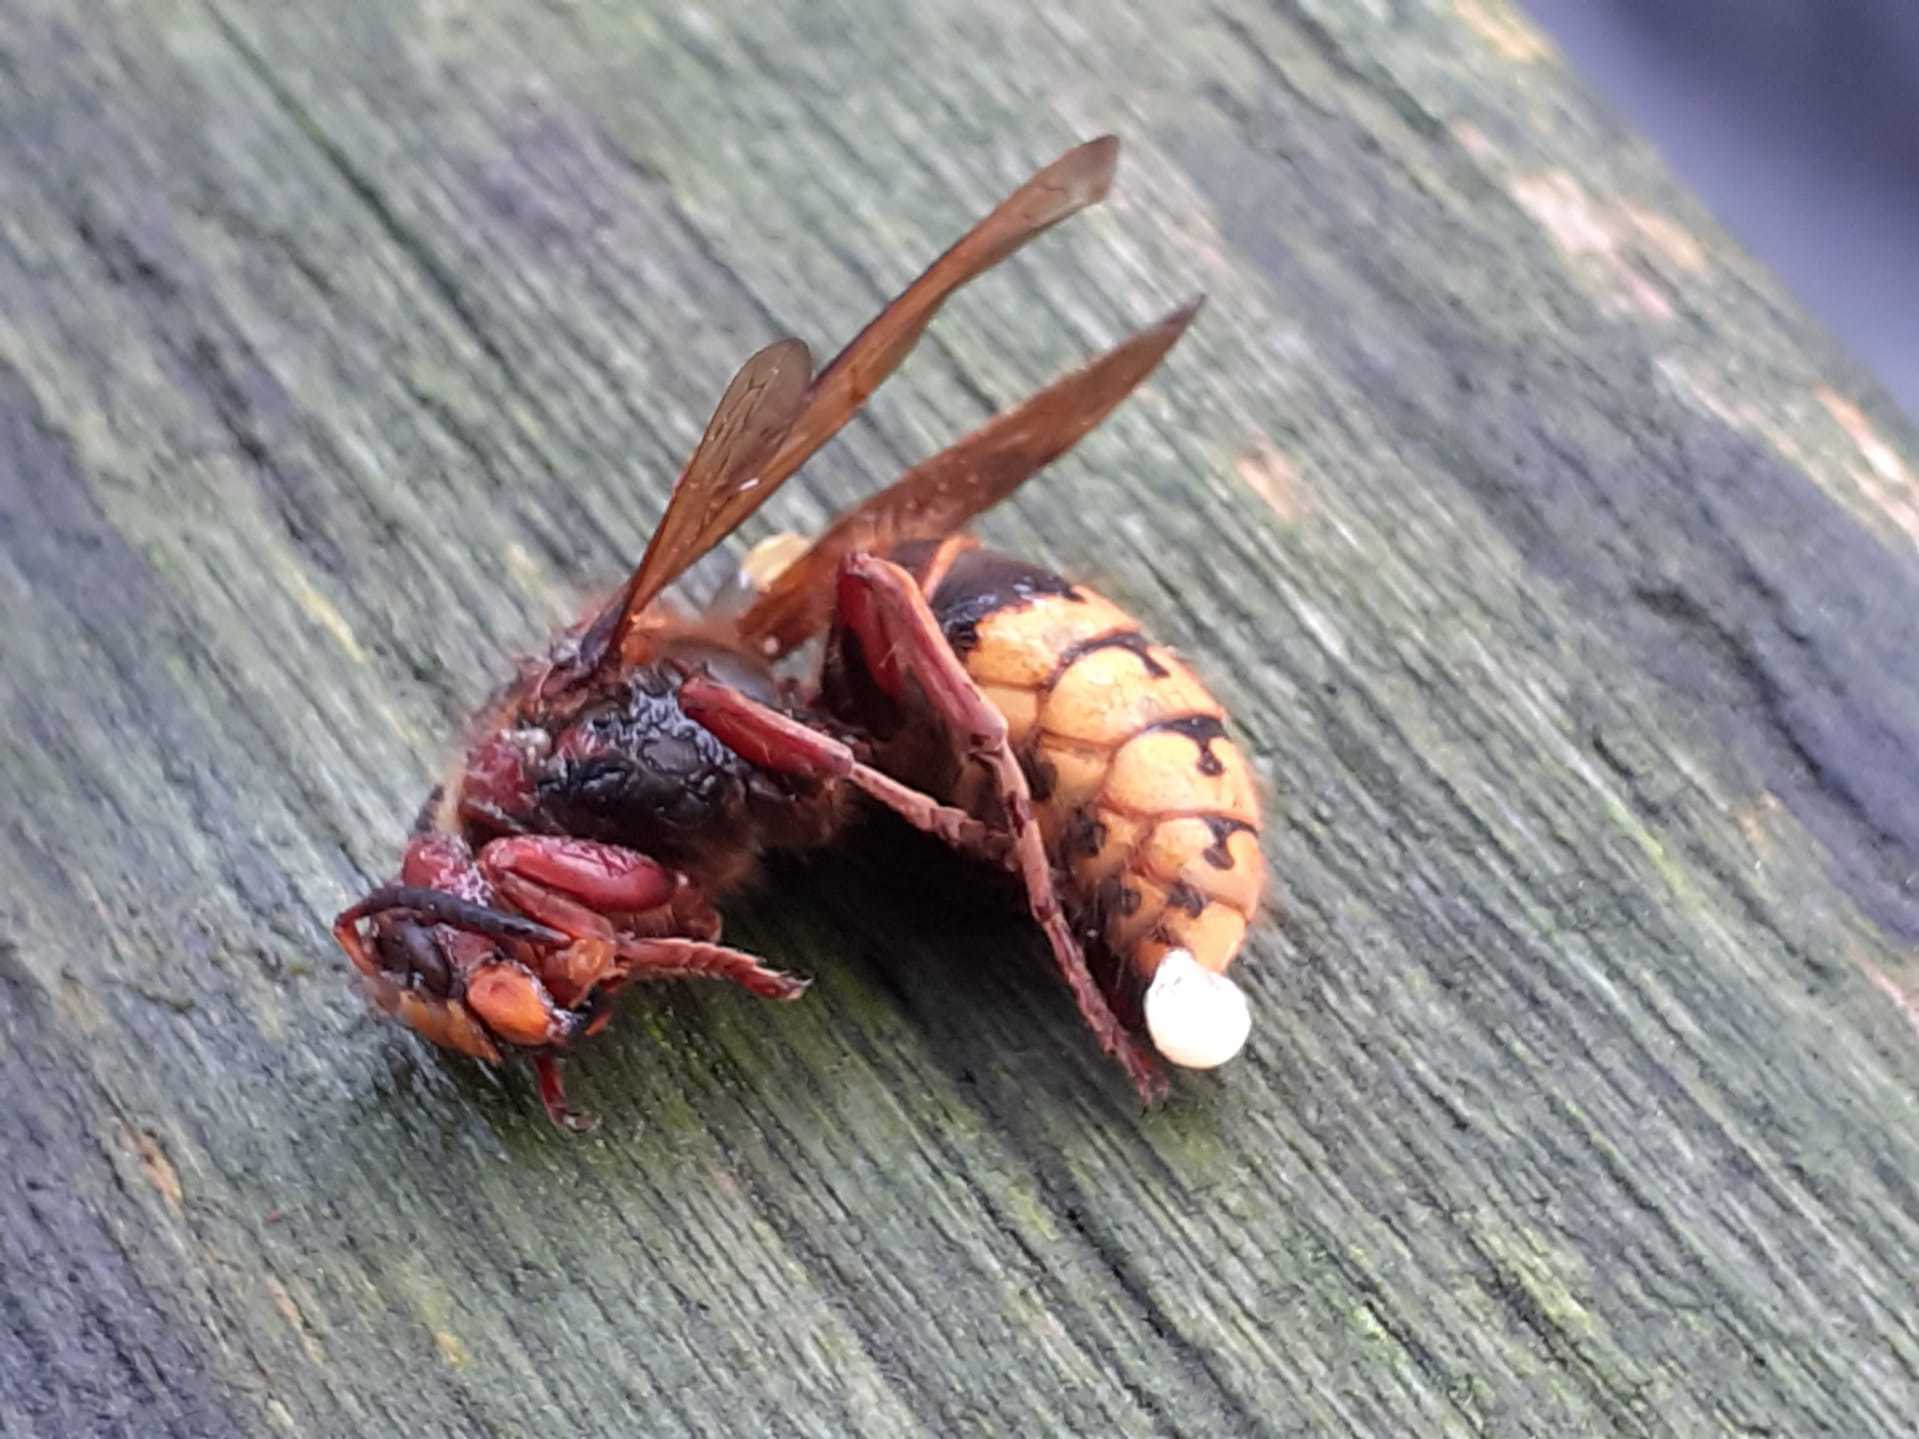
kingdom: Animalia
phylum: Arthropoda
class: Insecta
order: Hymenoptera
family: Vespidae
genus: Vespa
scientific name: Vespa crabro
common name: Hornet
